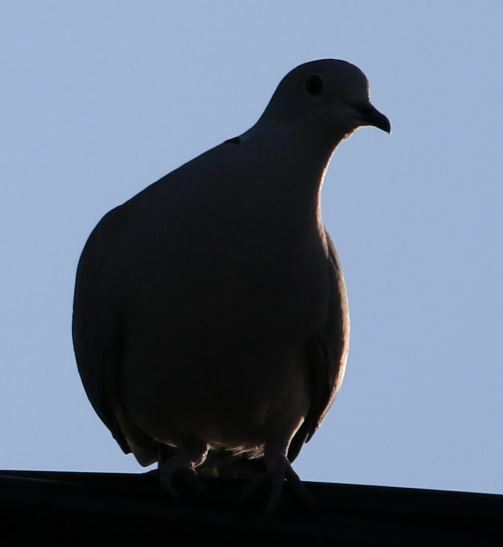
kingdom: Animalia
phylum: Chordata
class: Aves
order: Columbiformes
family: Columbidae
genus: Streptopelia
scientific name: Streptopelia decaocto
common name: Eurasian collared dove
